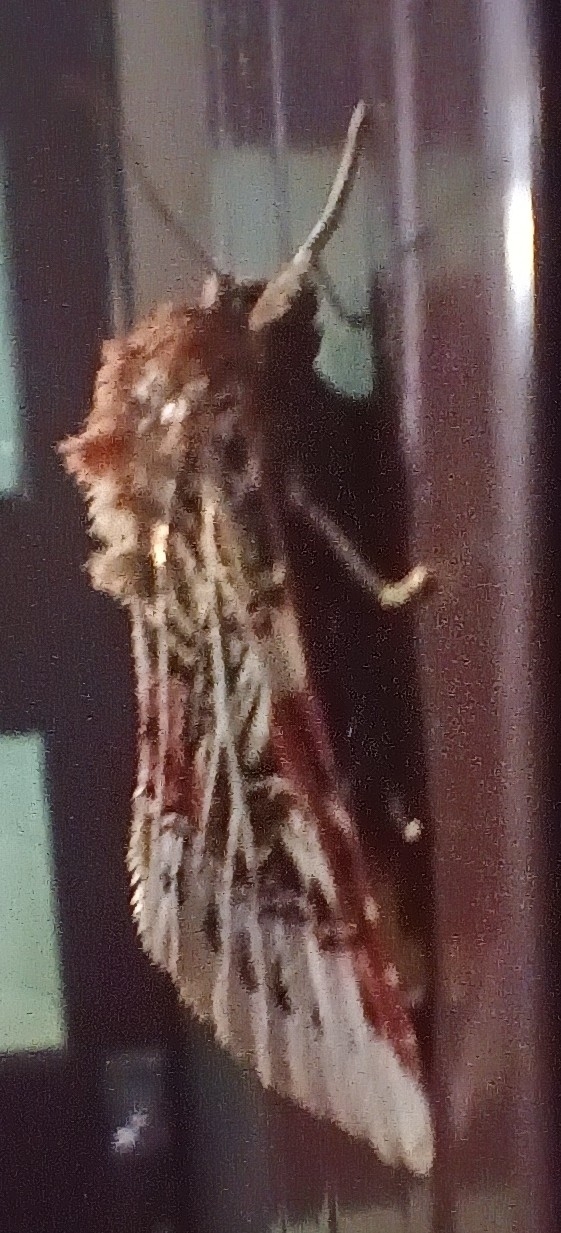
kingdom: Animalia
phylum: Arthropoda
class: Insecta
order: Lepidoptera
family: Noctuidae
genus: Spodoptera
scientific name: Spodoptera picta
